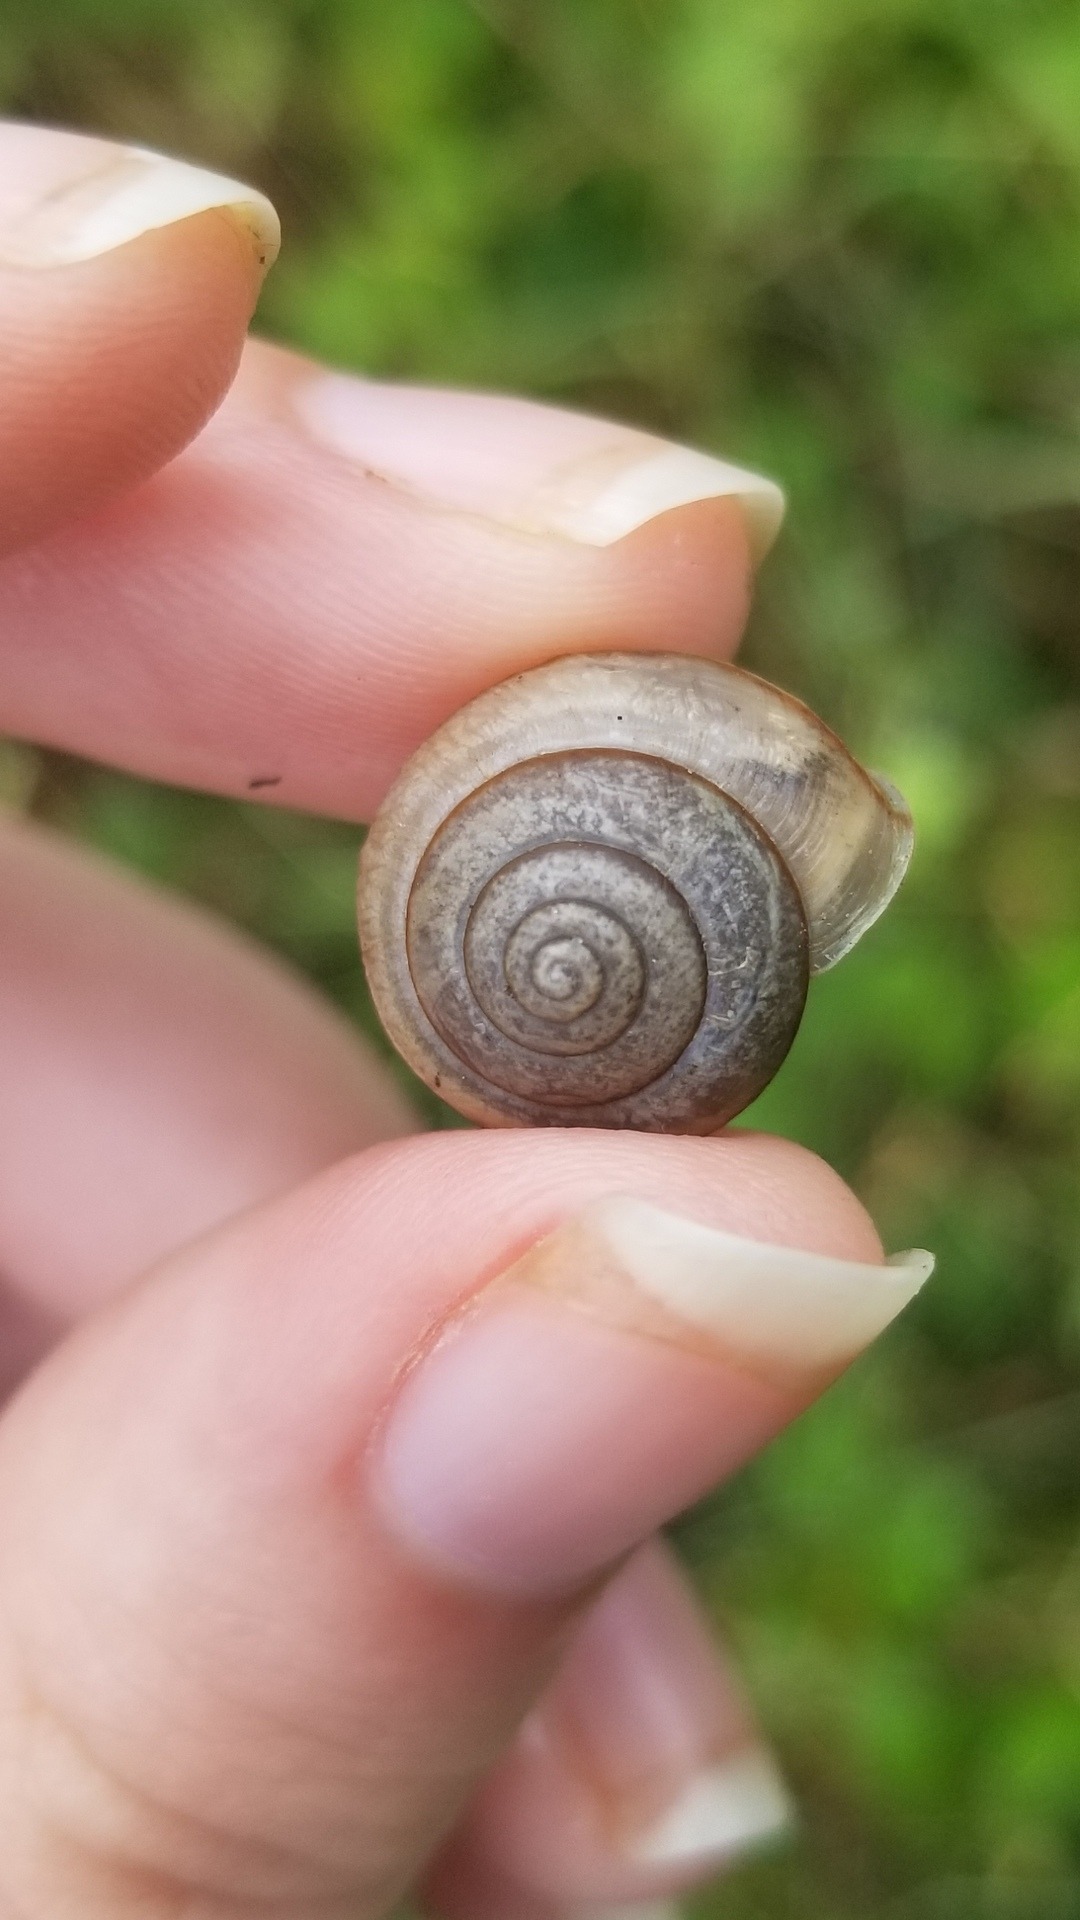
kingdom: Animalia
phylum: Mollusca
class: Gastropoda
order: Stylommatophora
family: Camaenidae
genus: Bradybaena
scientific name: Bradybaena similaris
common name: Asian trampsnail
